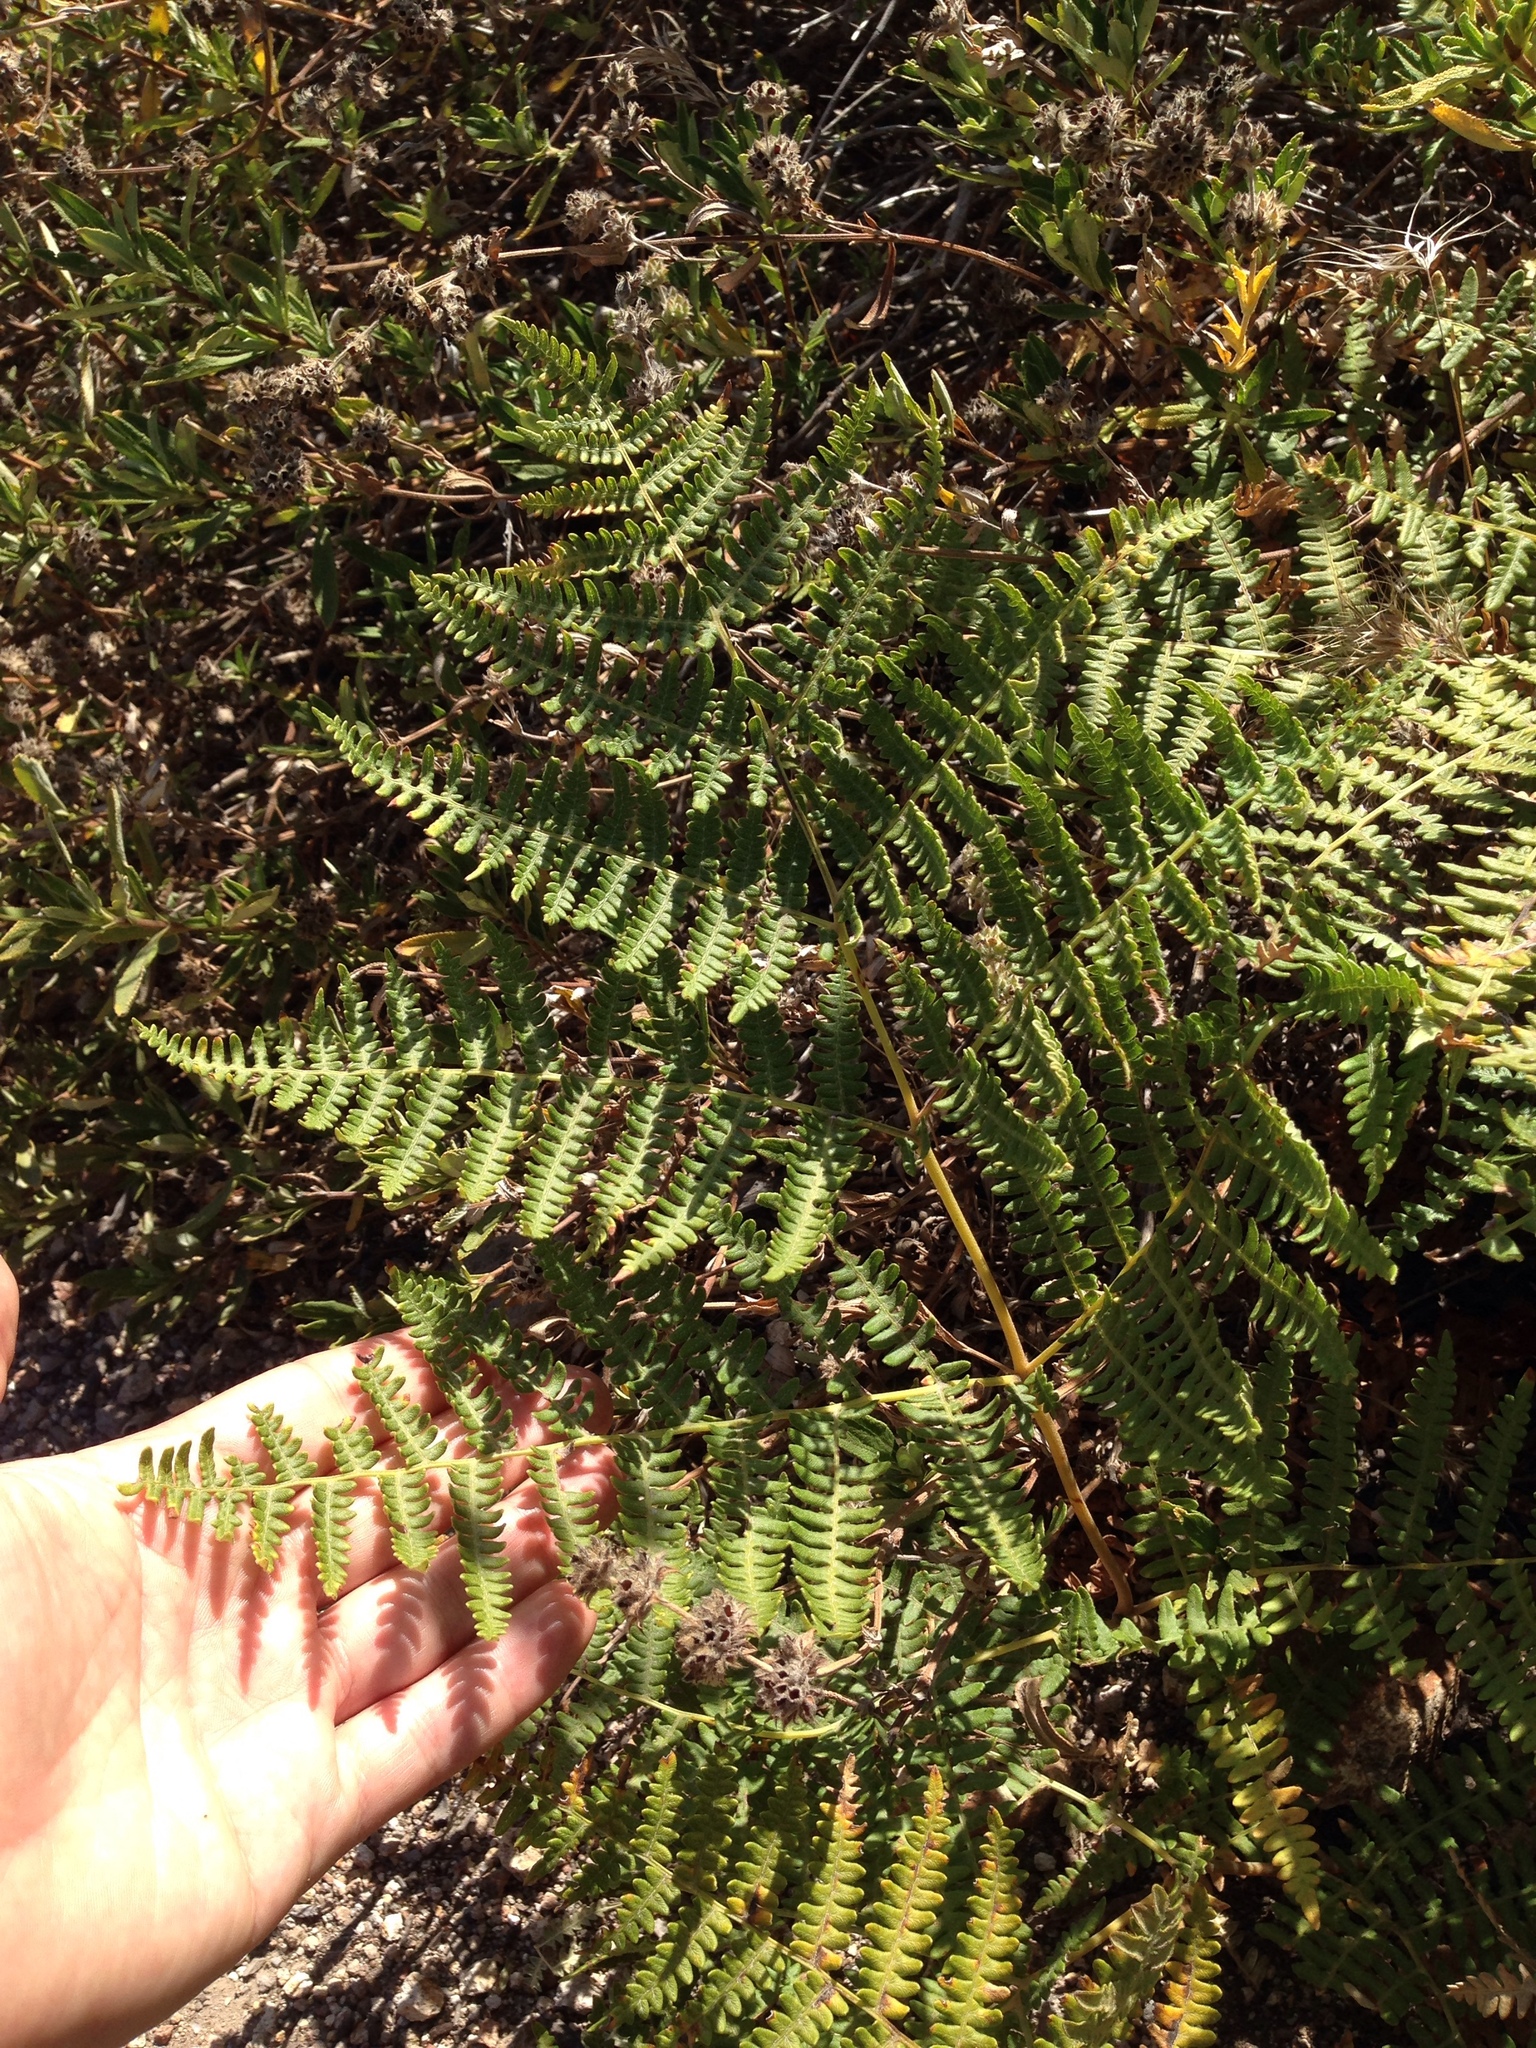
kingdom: Plantae
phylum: Tracheophyta
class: Polypodiopsida
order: Polypodiales
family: Dennstaedtiaceae
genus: Pteridium
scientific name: Pteridium aquilinum
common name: Bracken
